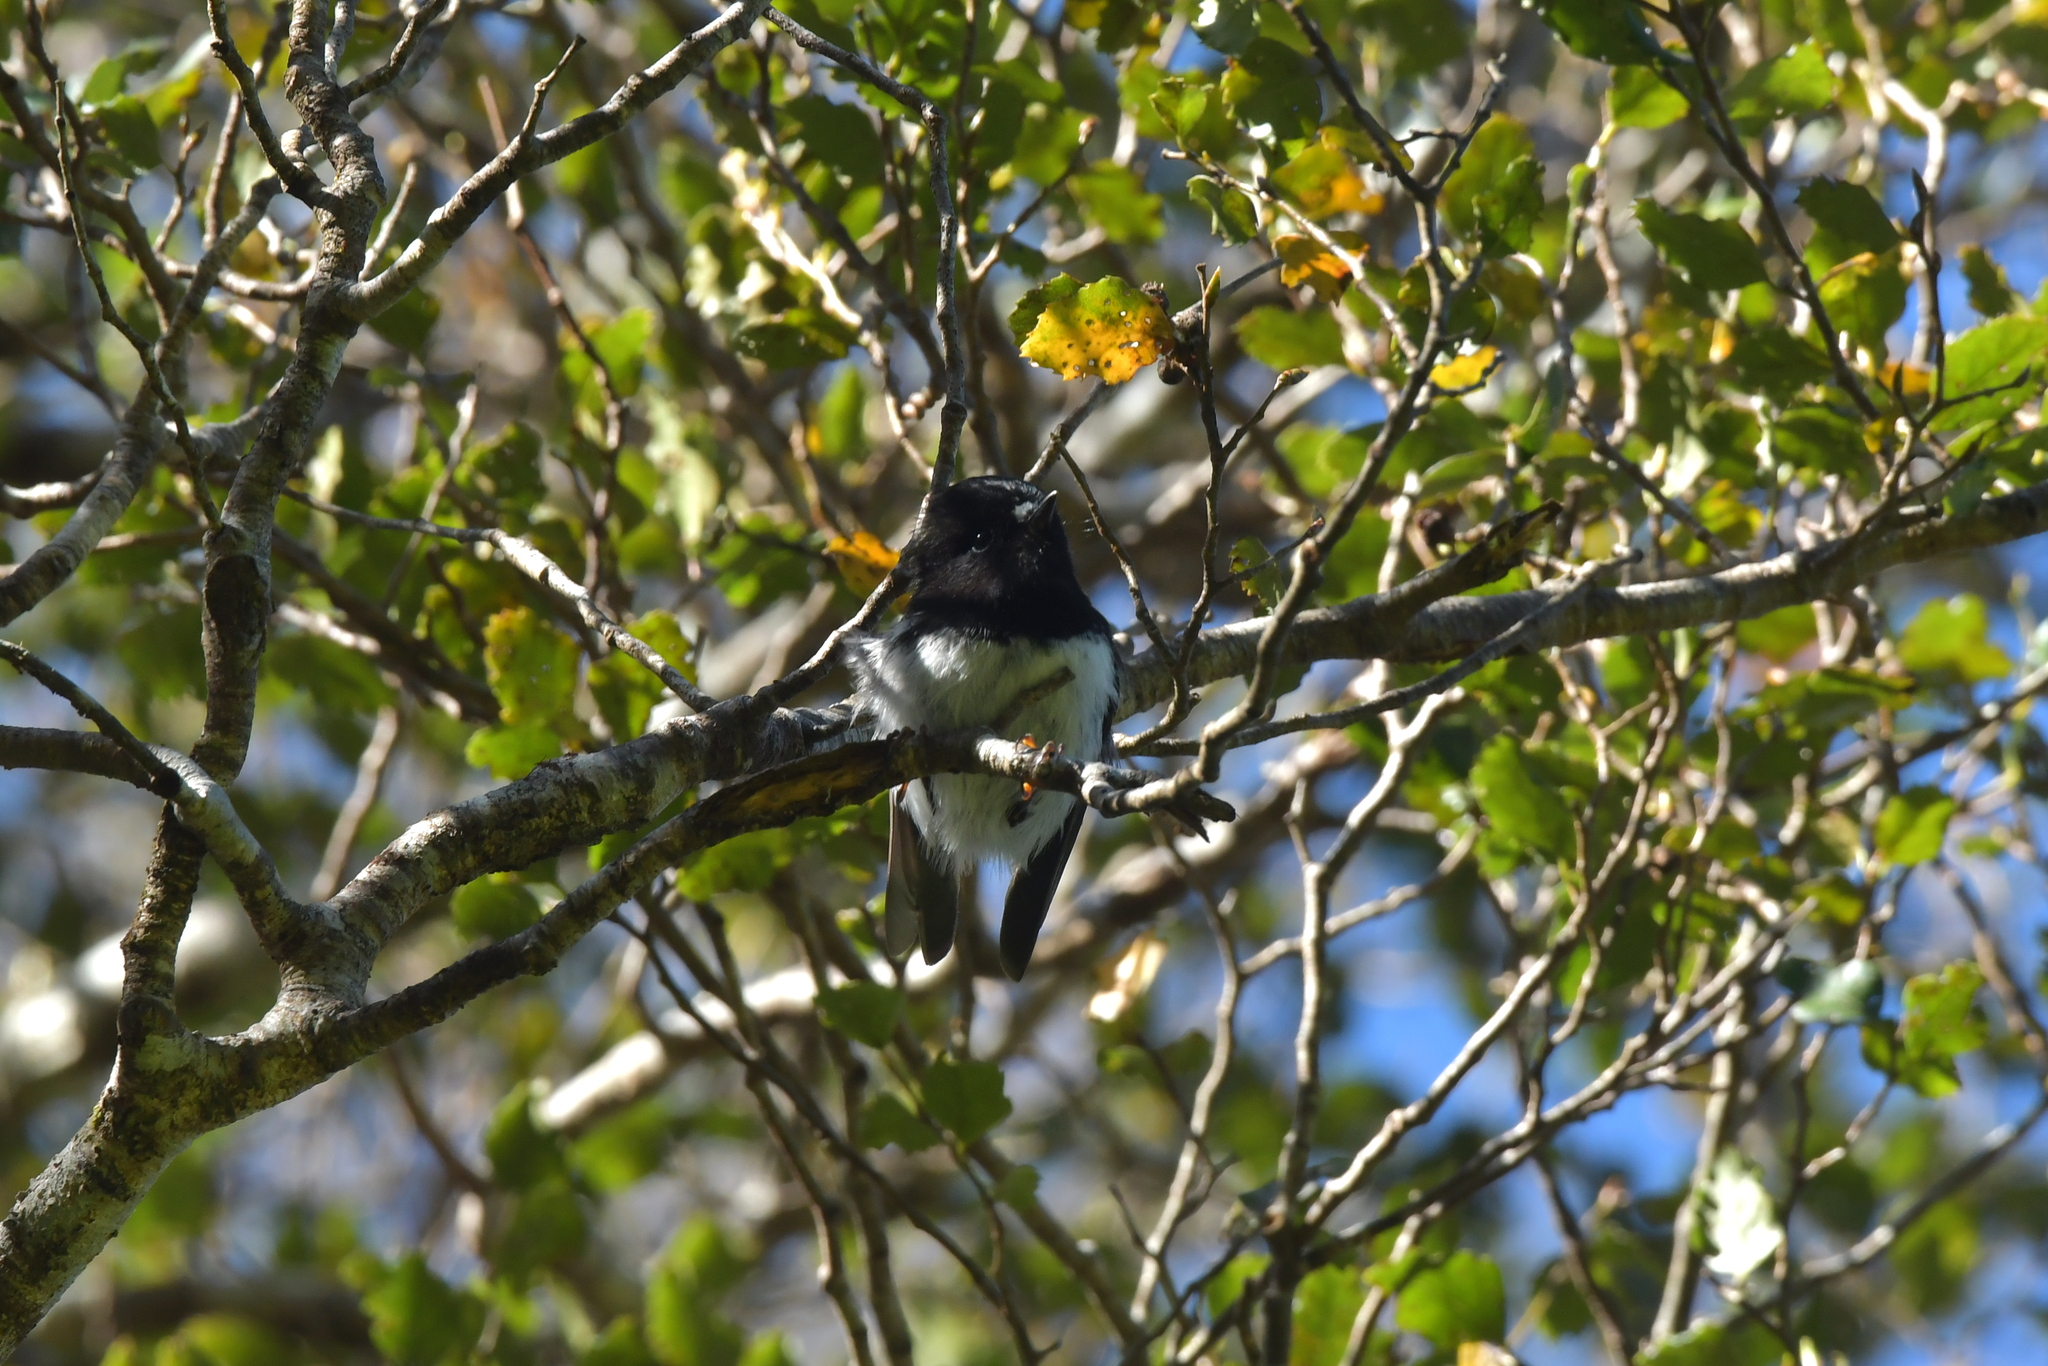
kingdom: Animalia
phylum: Chordata
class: Aves
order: Passeriformes
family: Petroicidae
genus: Petroica
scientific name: Petroica macrocephala
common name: Tomtit
